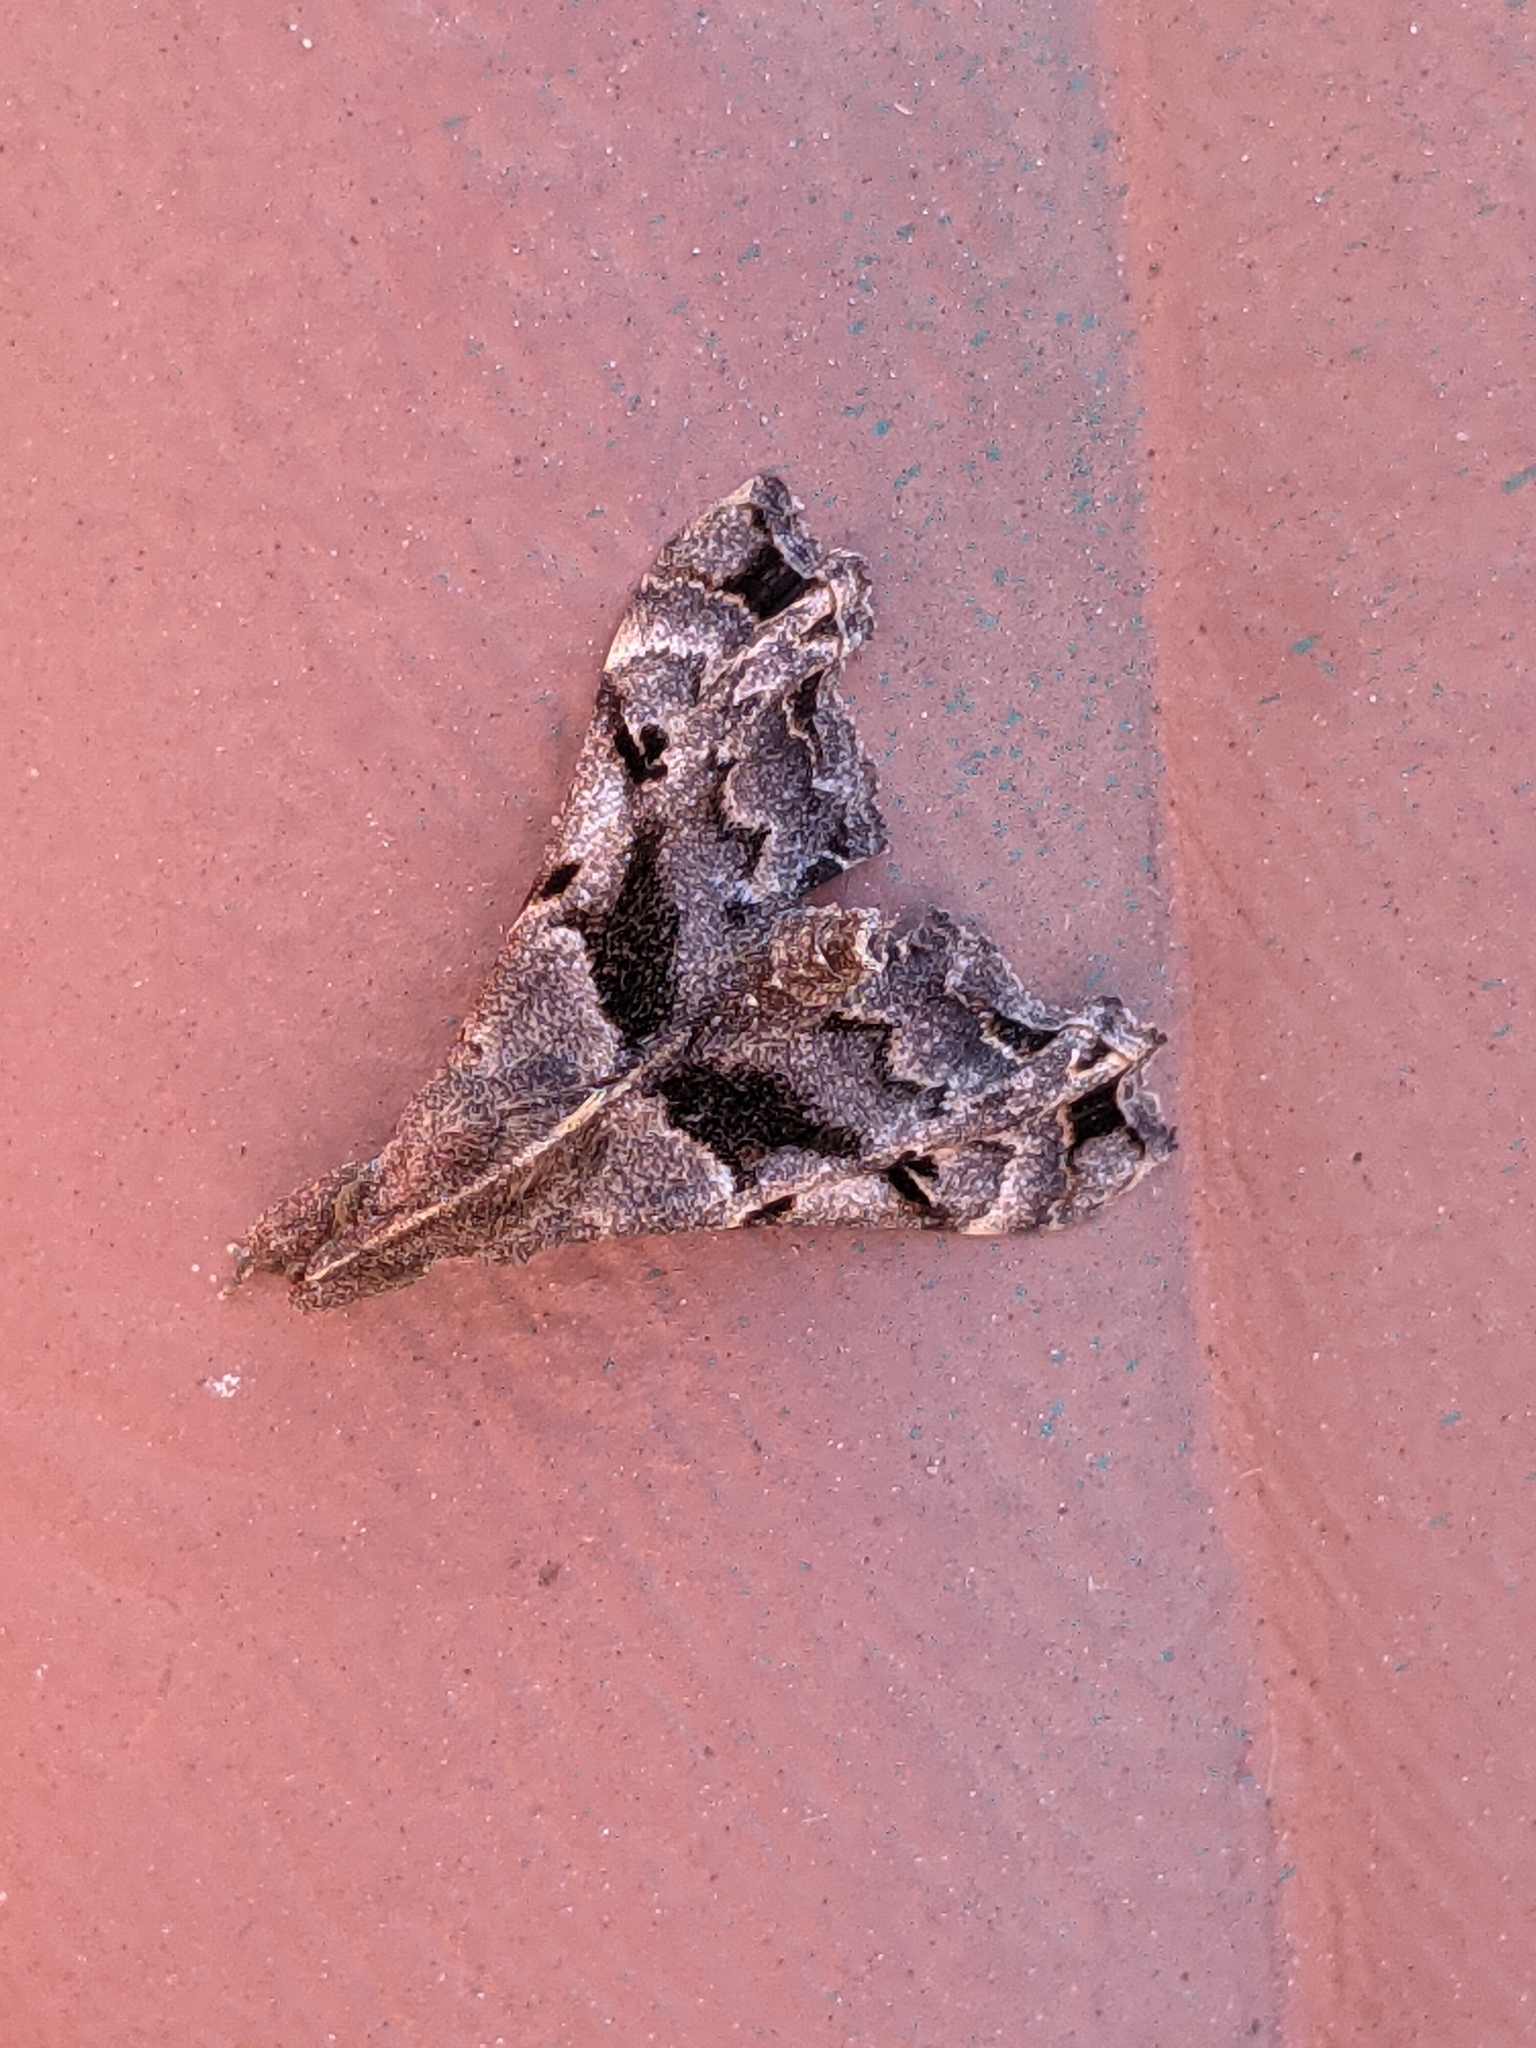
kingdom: Animalia
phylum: Arthropoda
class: Insecta
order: Lepidoptera
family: Erebidae
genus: Palthis
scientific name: Palthis asopialis
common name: Faint-spotted palthis moth
